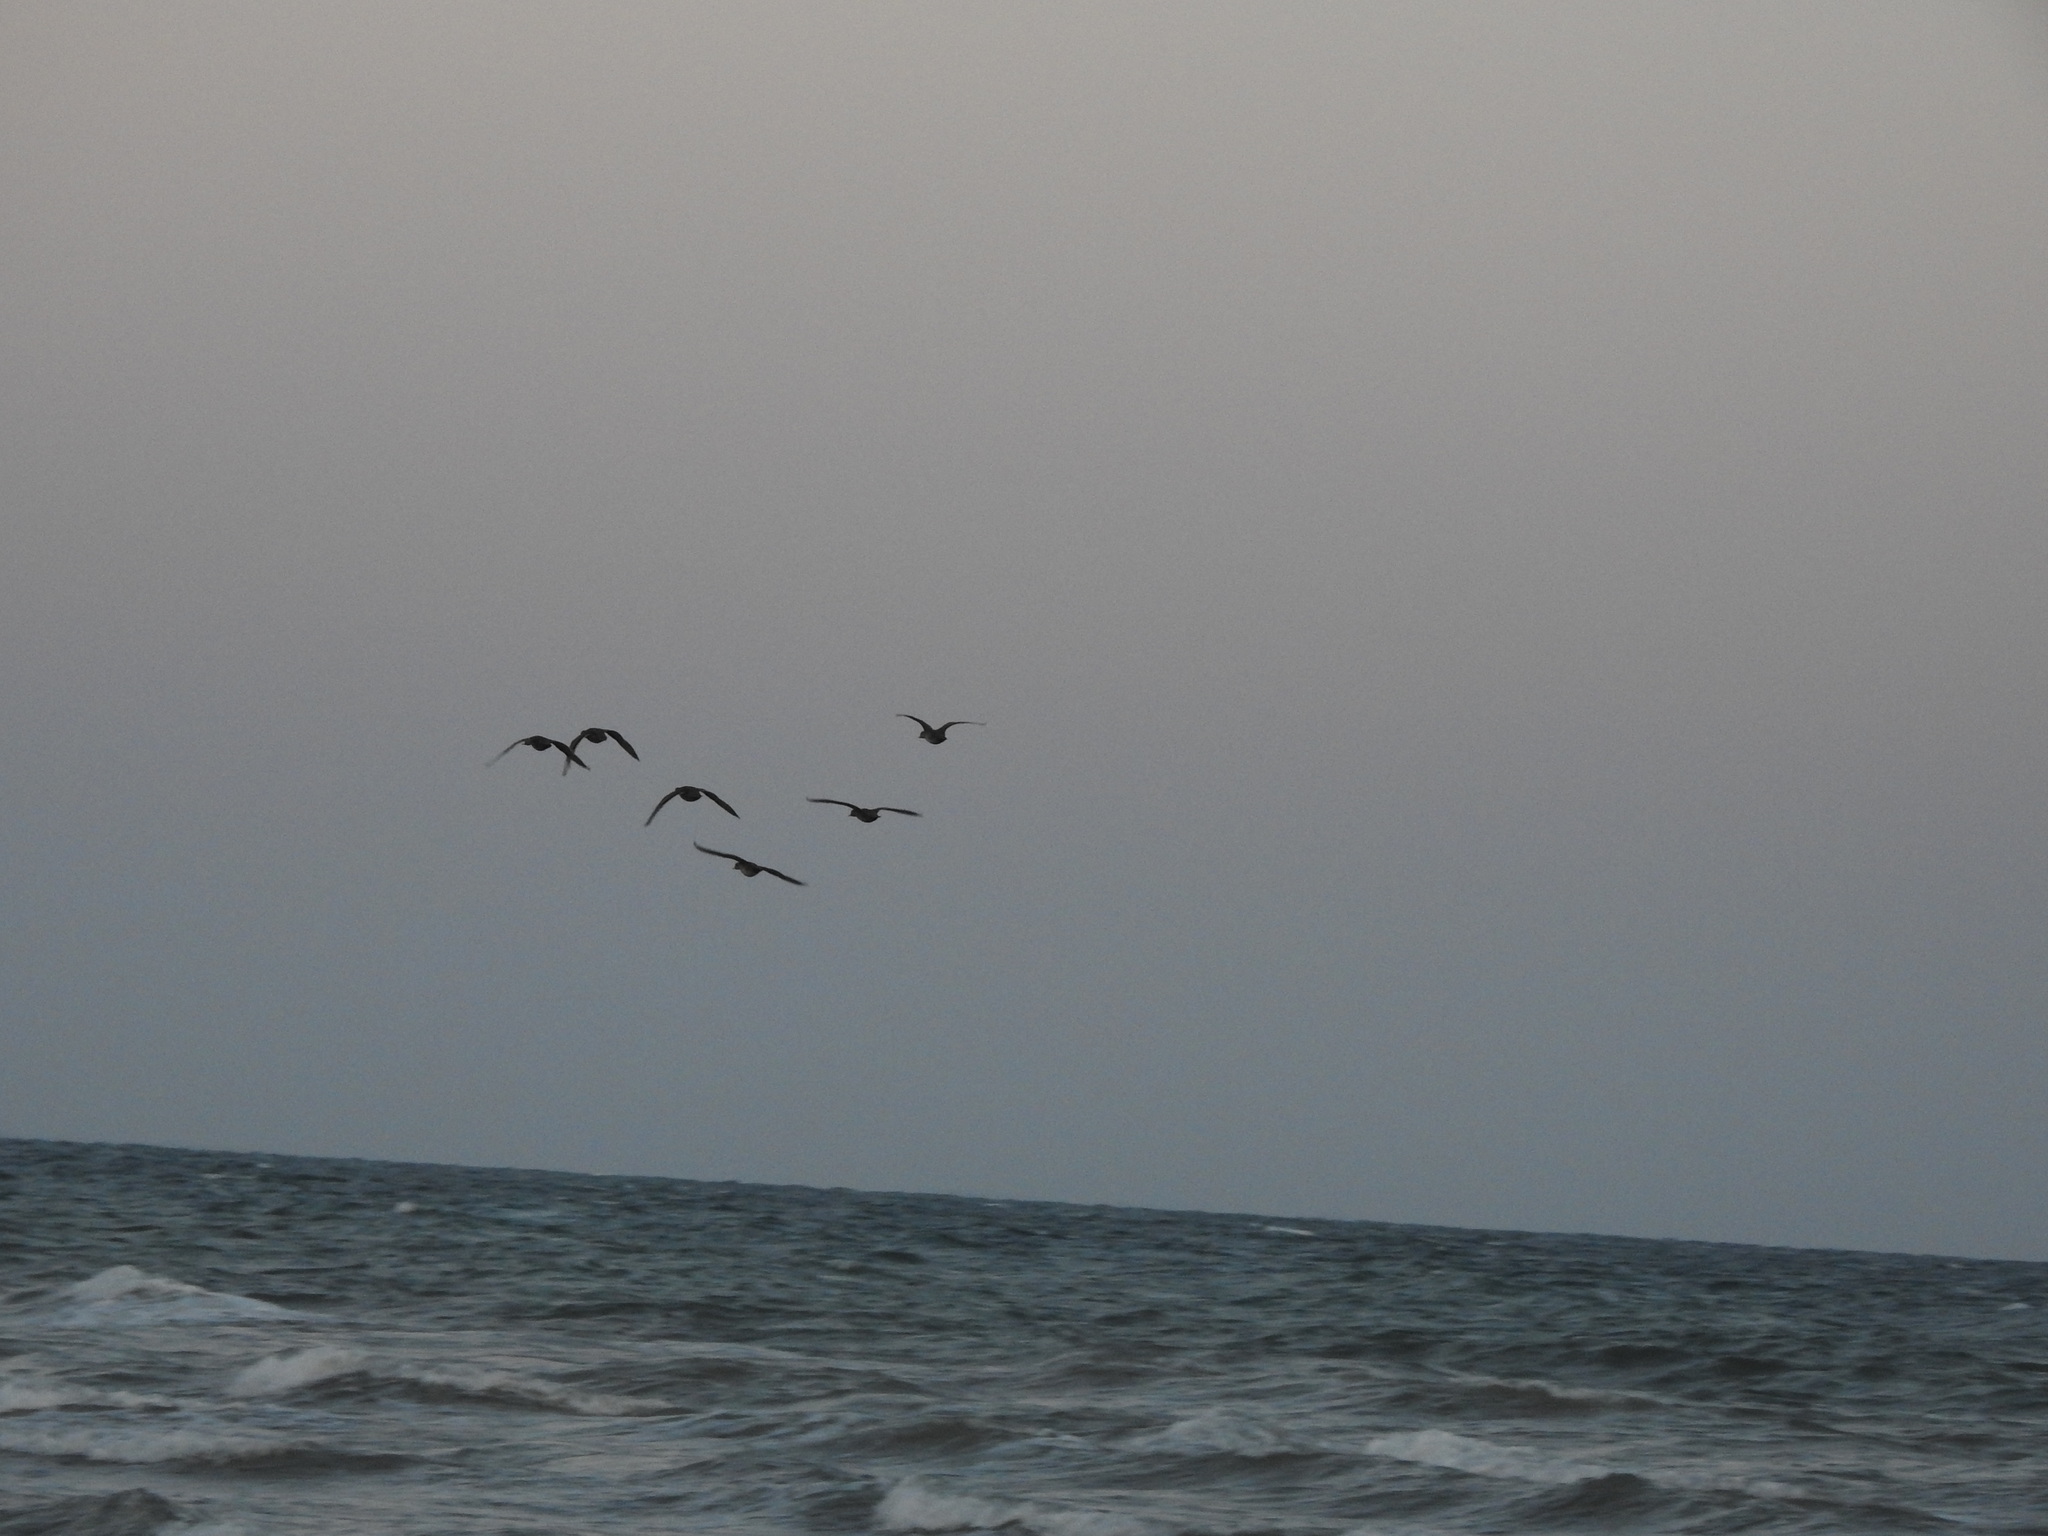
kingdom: Animalia
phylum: Chordata
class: Aves
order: Anseriformes
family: Anatidae
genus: Anas
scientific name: Anas georgica
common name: Yellow-billed pintail
